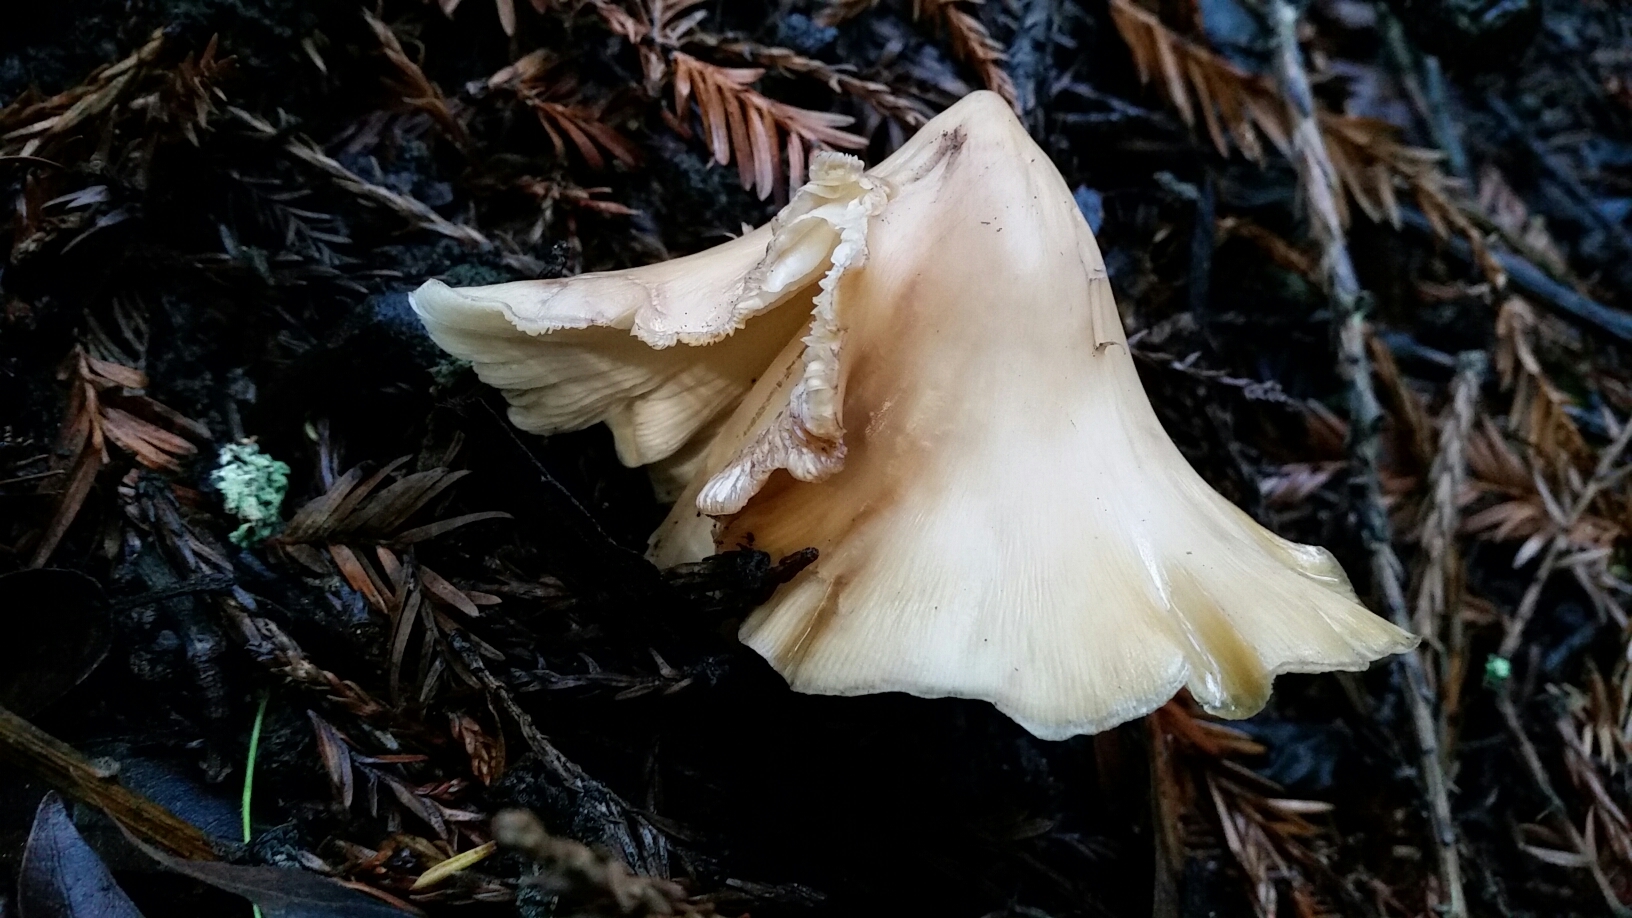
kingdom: Fungi
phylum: Basidiomycota
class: Agaricomycetes
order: Agaricales
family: Tricholomataceae
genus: Caulorhiza
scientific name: Caulorhiza umbonata
